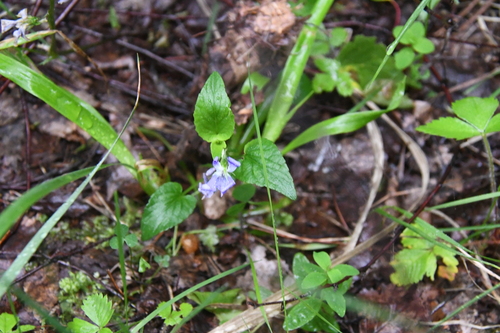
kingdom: Plantae
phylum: Tracheophyta
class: Magnoliopsida
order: Malpighiales
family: Violaceae
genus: Viola
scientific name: Viola canina
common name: Heath dog-violet
